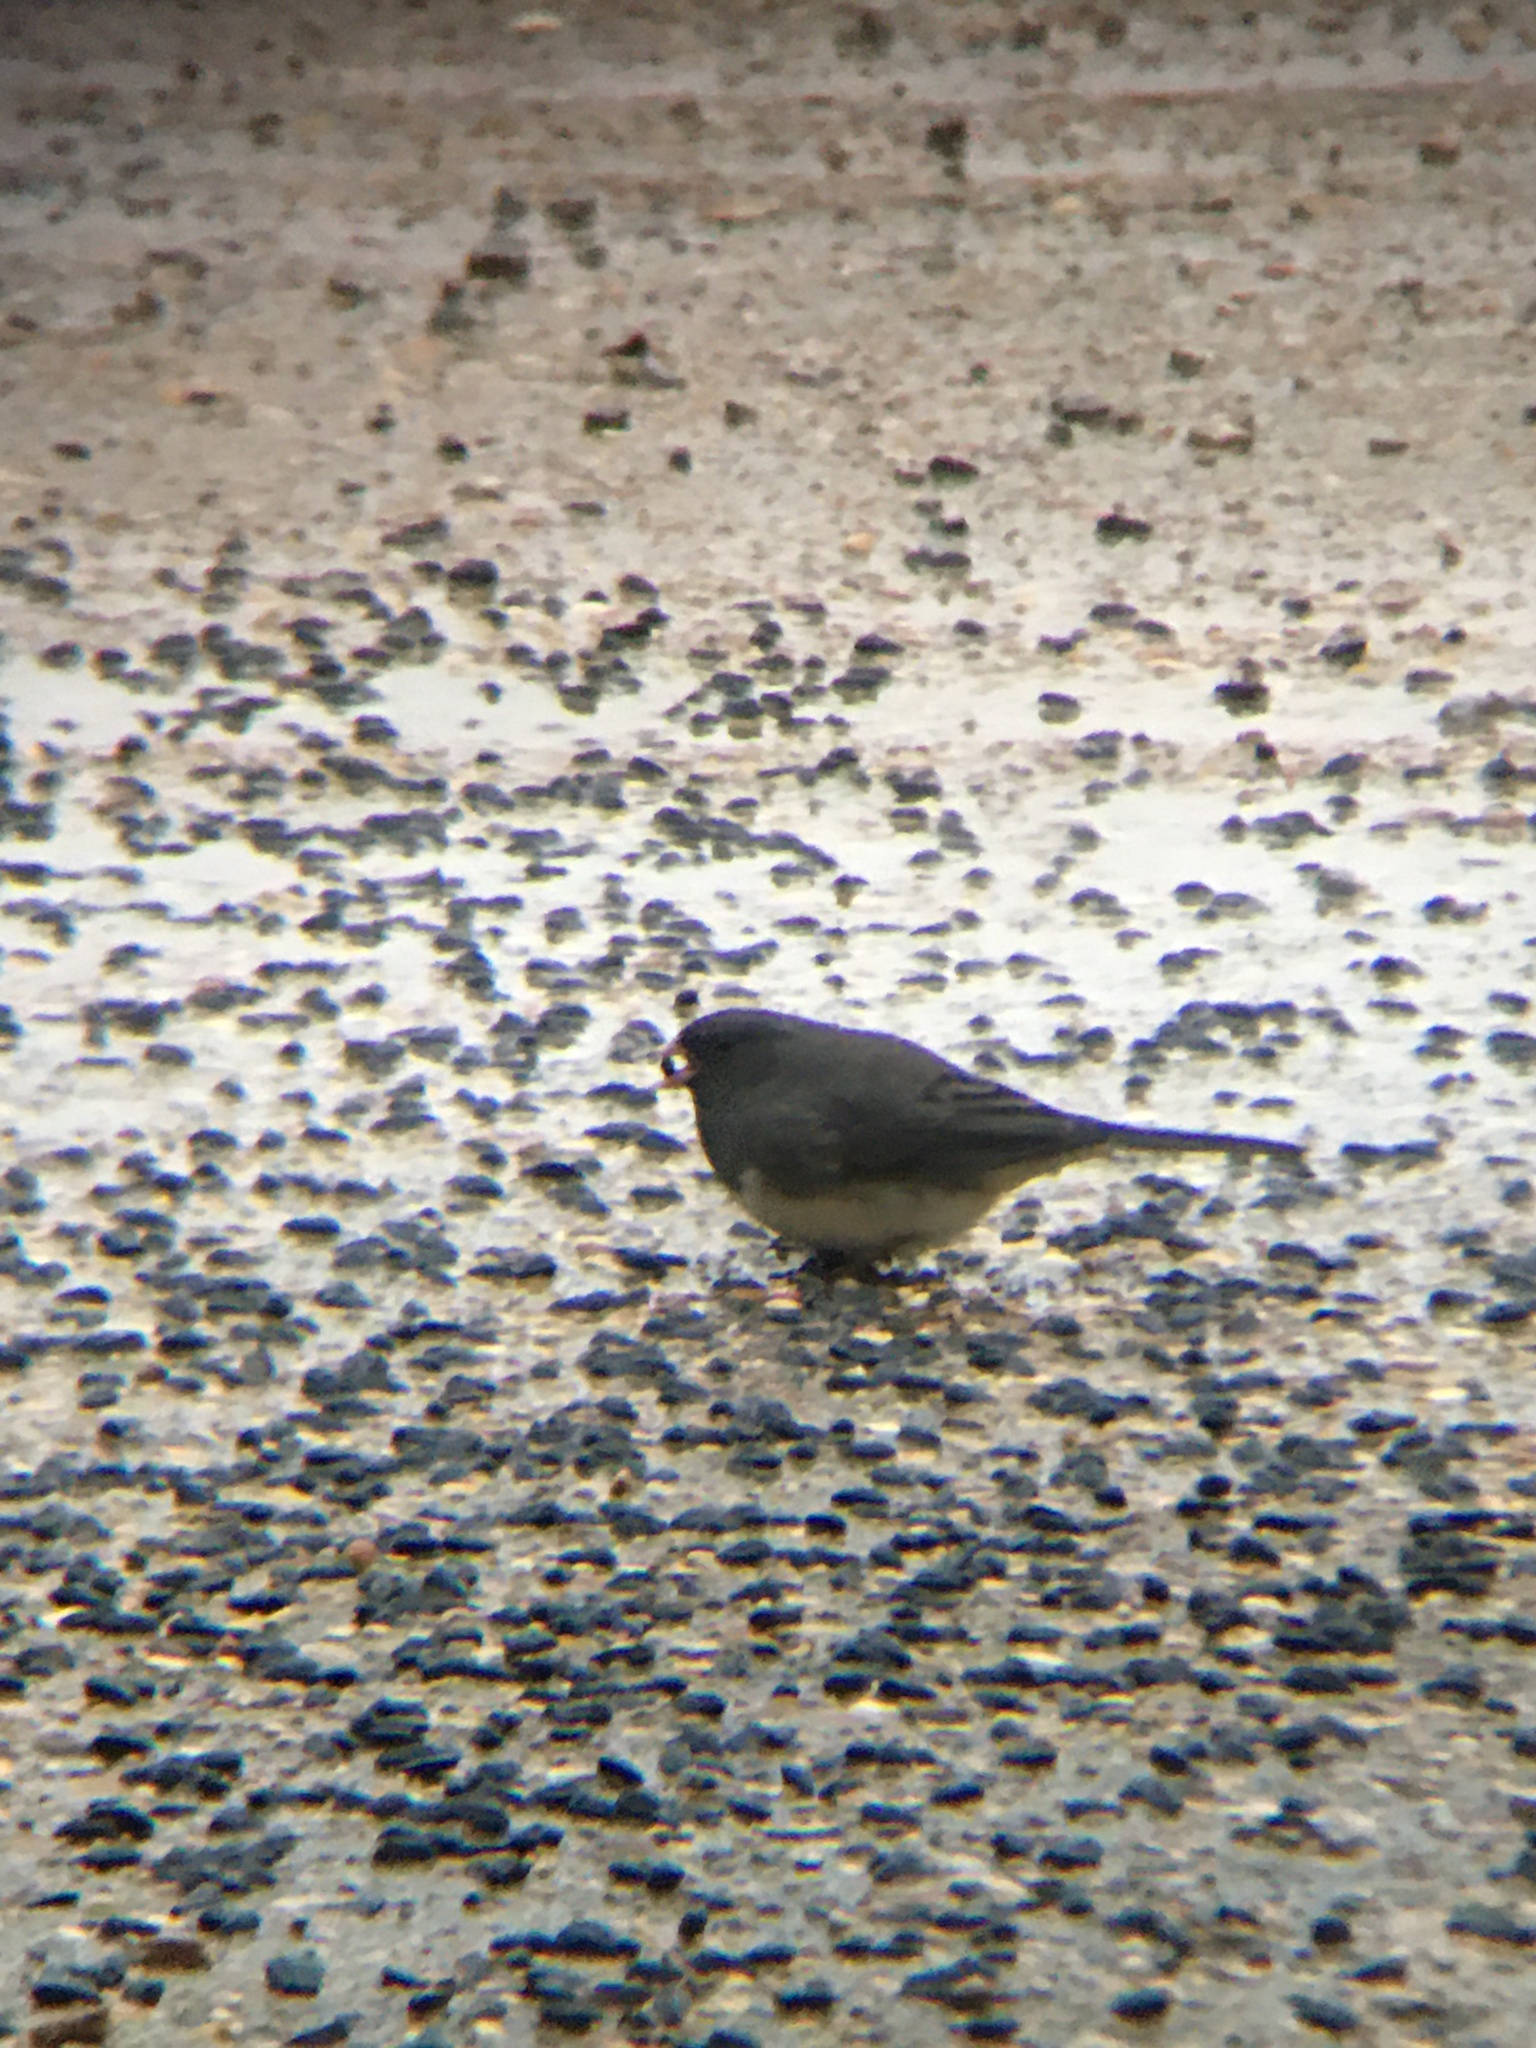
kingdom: Animalia
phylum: Chordata
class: Aves
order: Passeriformes
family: Passerellidae
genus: Junco
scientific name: Junco hyemalis
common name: Dark-eyed junco
